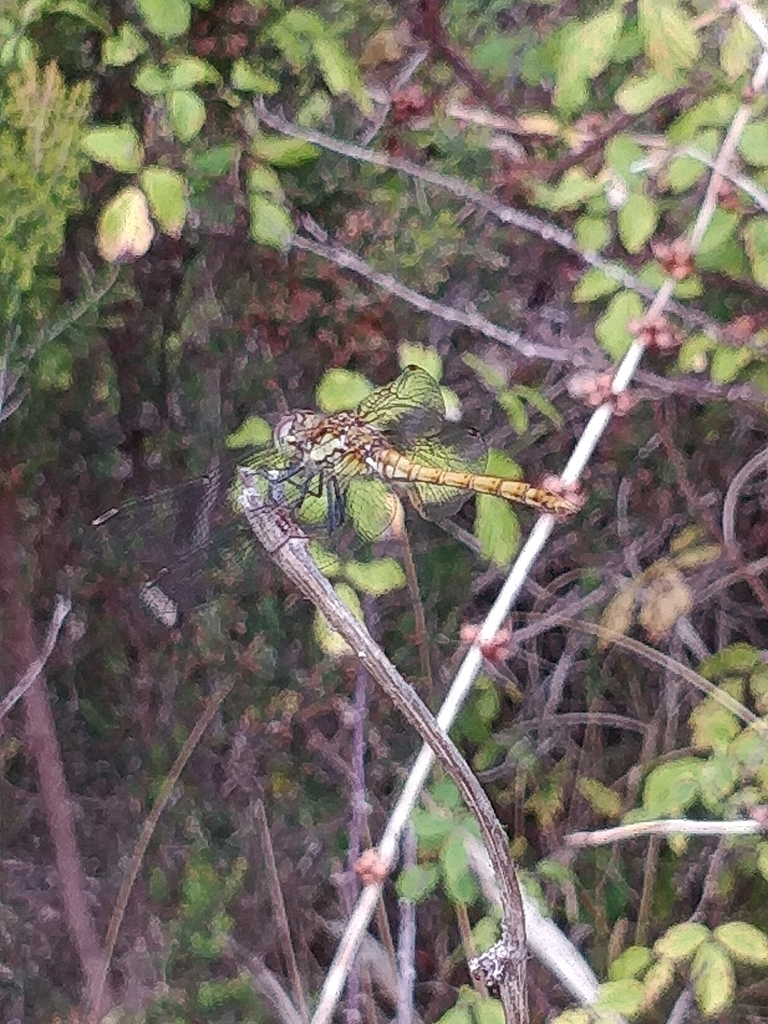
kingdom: Animalia
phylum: Arthropoda
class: Insecta
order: Odonata
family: Libellulidae
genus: Sympetrum
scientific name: Sympetrum nigrifemur
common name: Island darter
